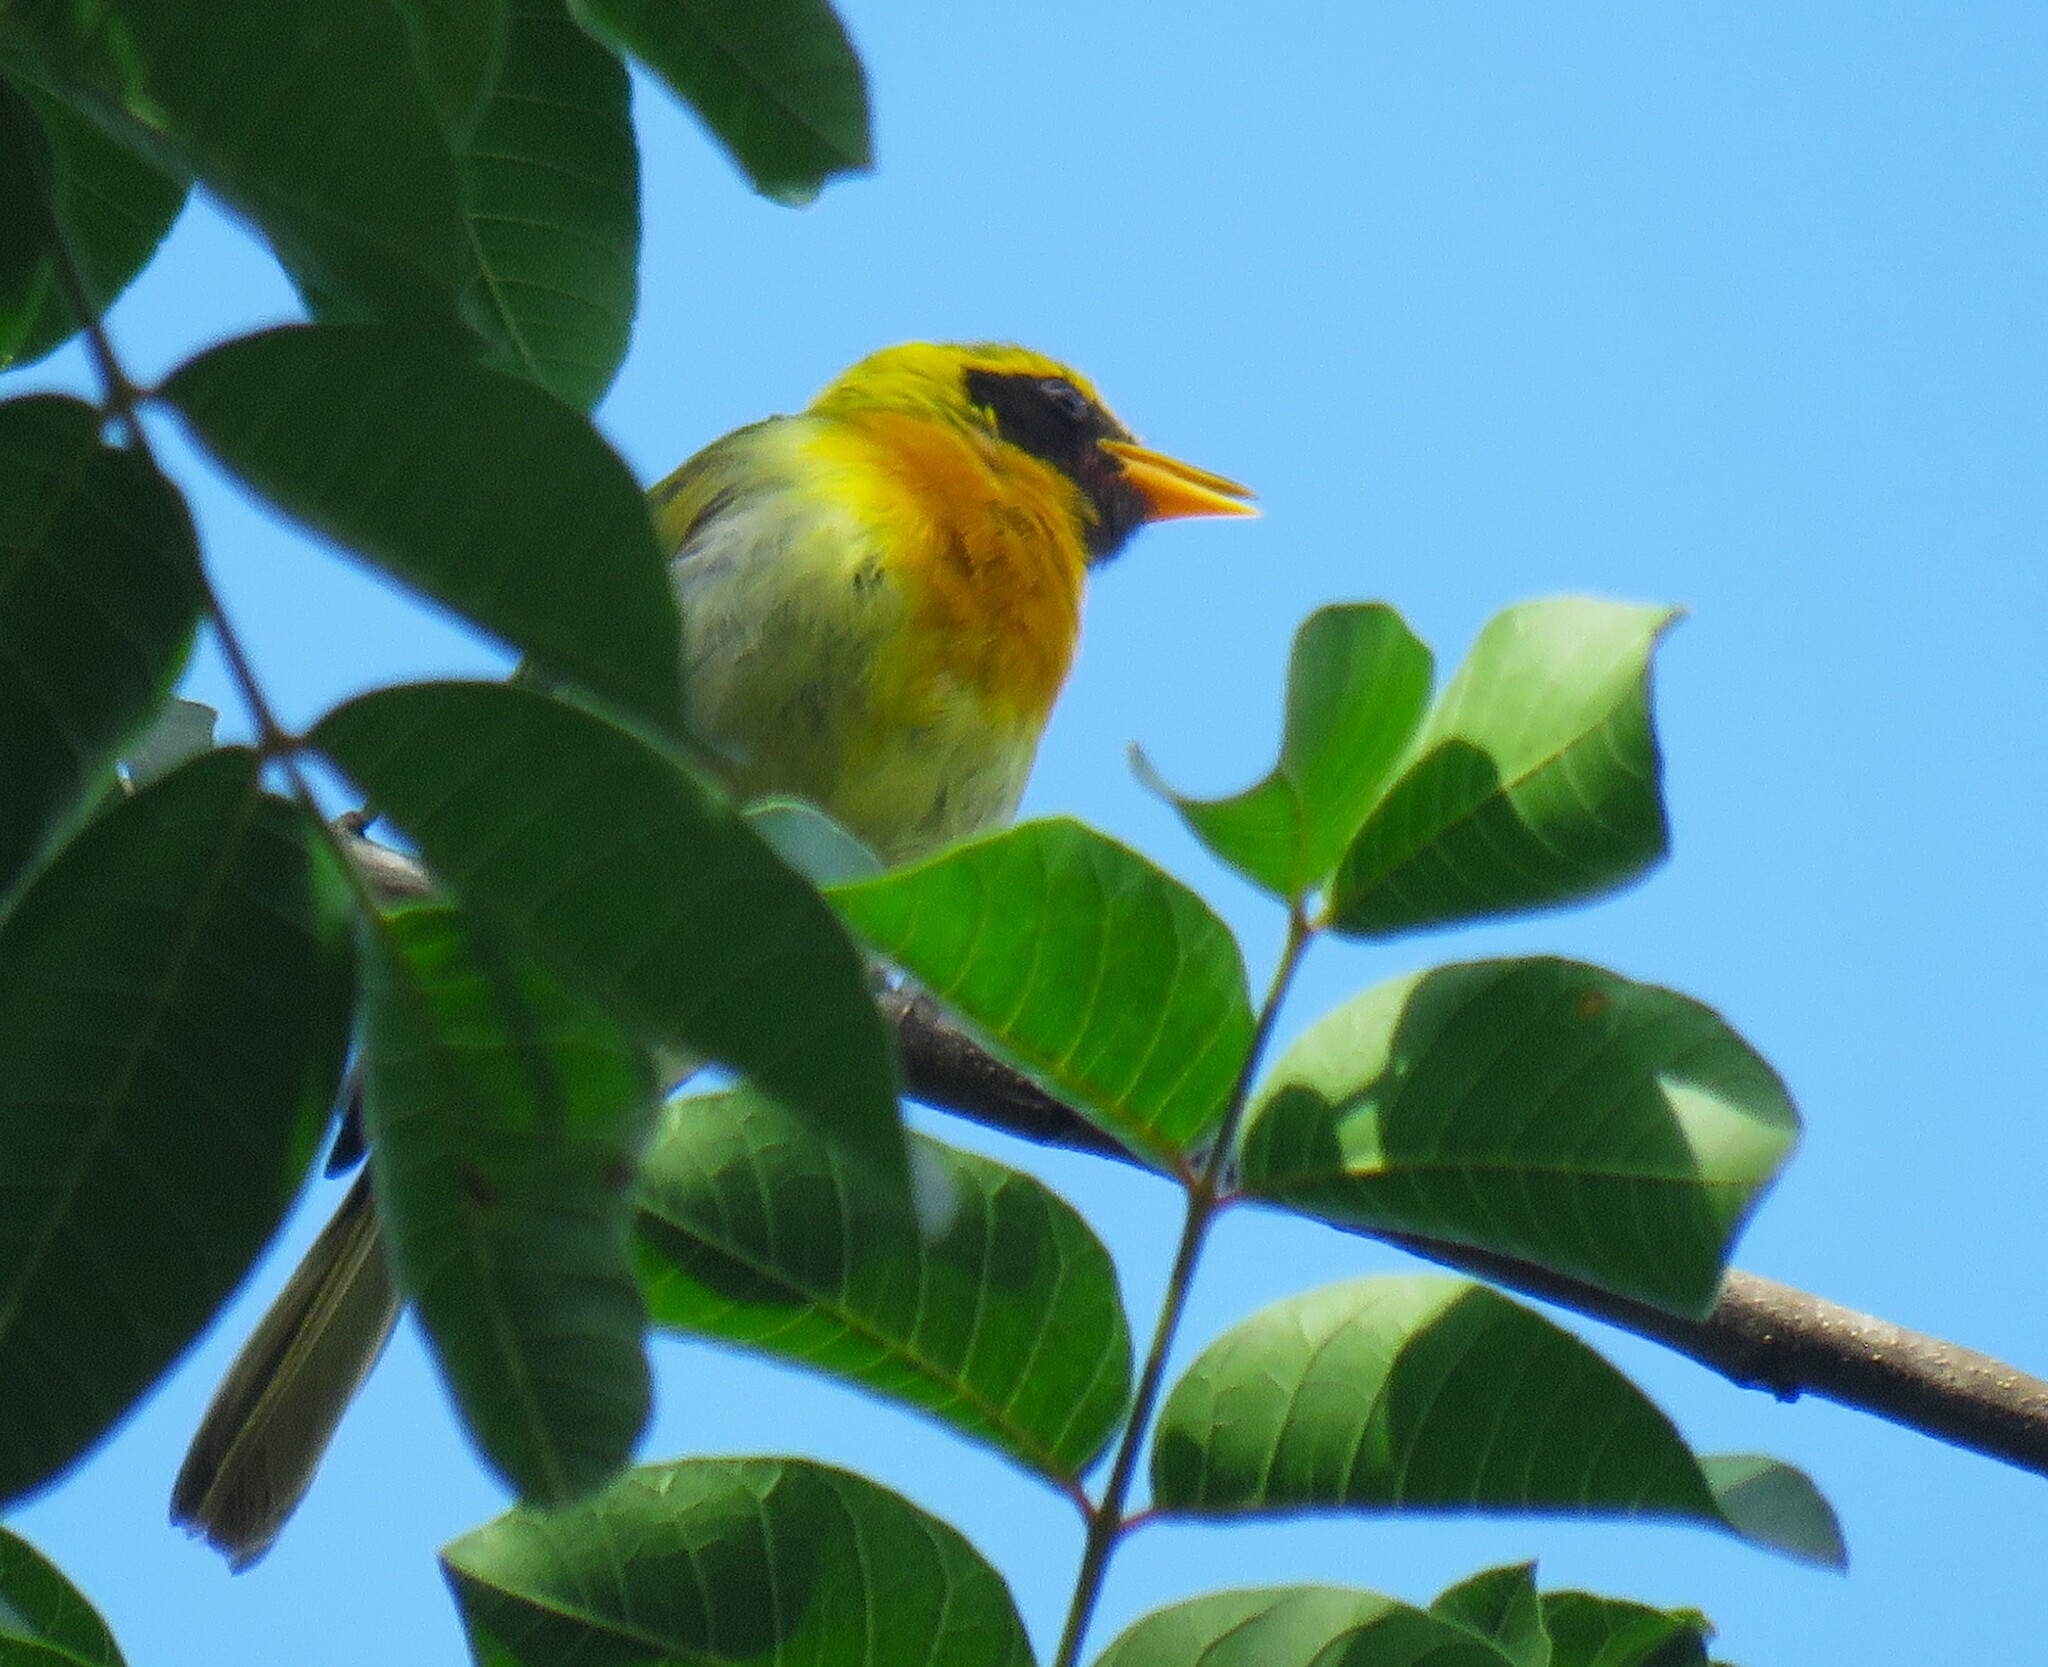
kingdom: Animalia
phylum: Chordata
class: Aves
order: Passeriformes
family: Thraupidae
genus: Hemithraupis
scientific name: Hemithraupis guira
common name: Guira tanager
